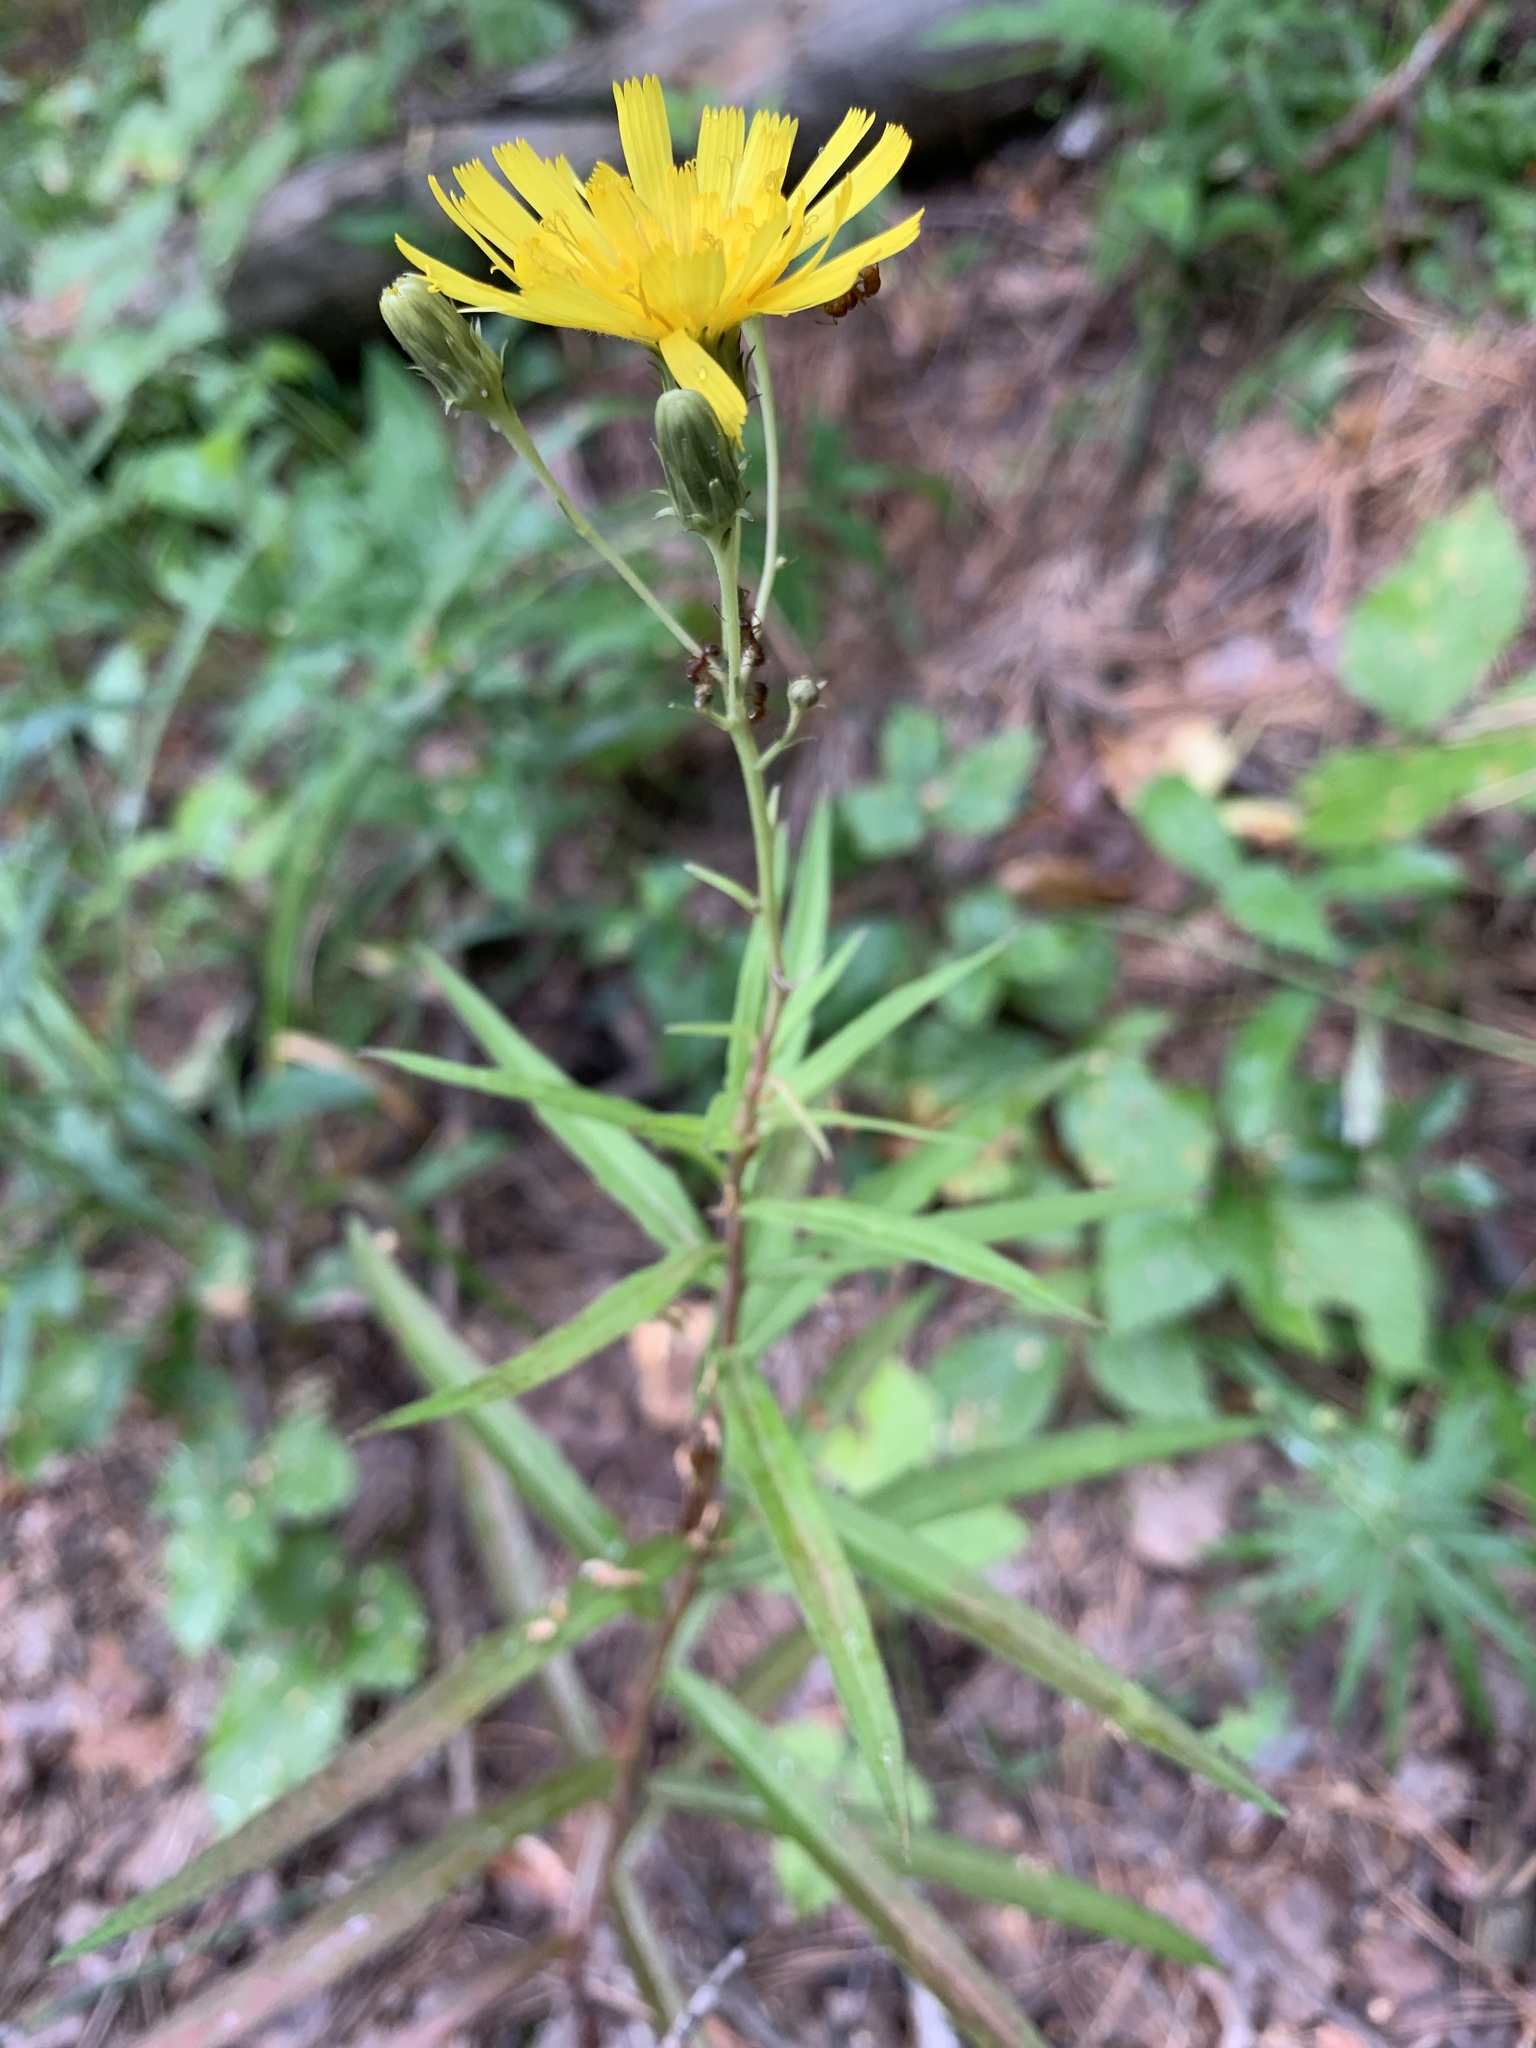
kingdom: Plantae
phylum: Tracheophyta
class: Magnoliopsida
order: Asterales
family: Asteraceae
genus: Hieracium
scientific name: Hieracium umbellatum
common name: Northern hawkweed
